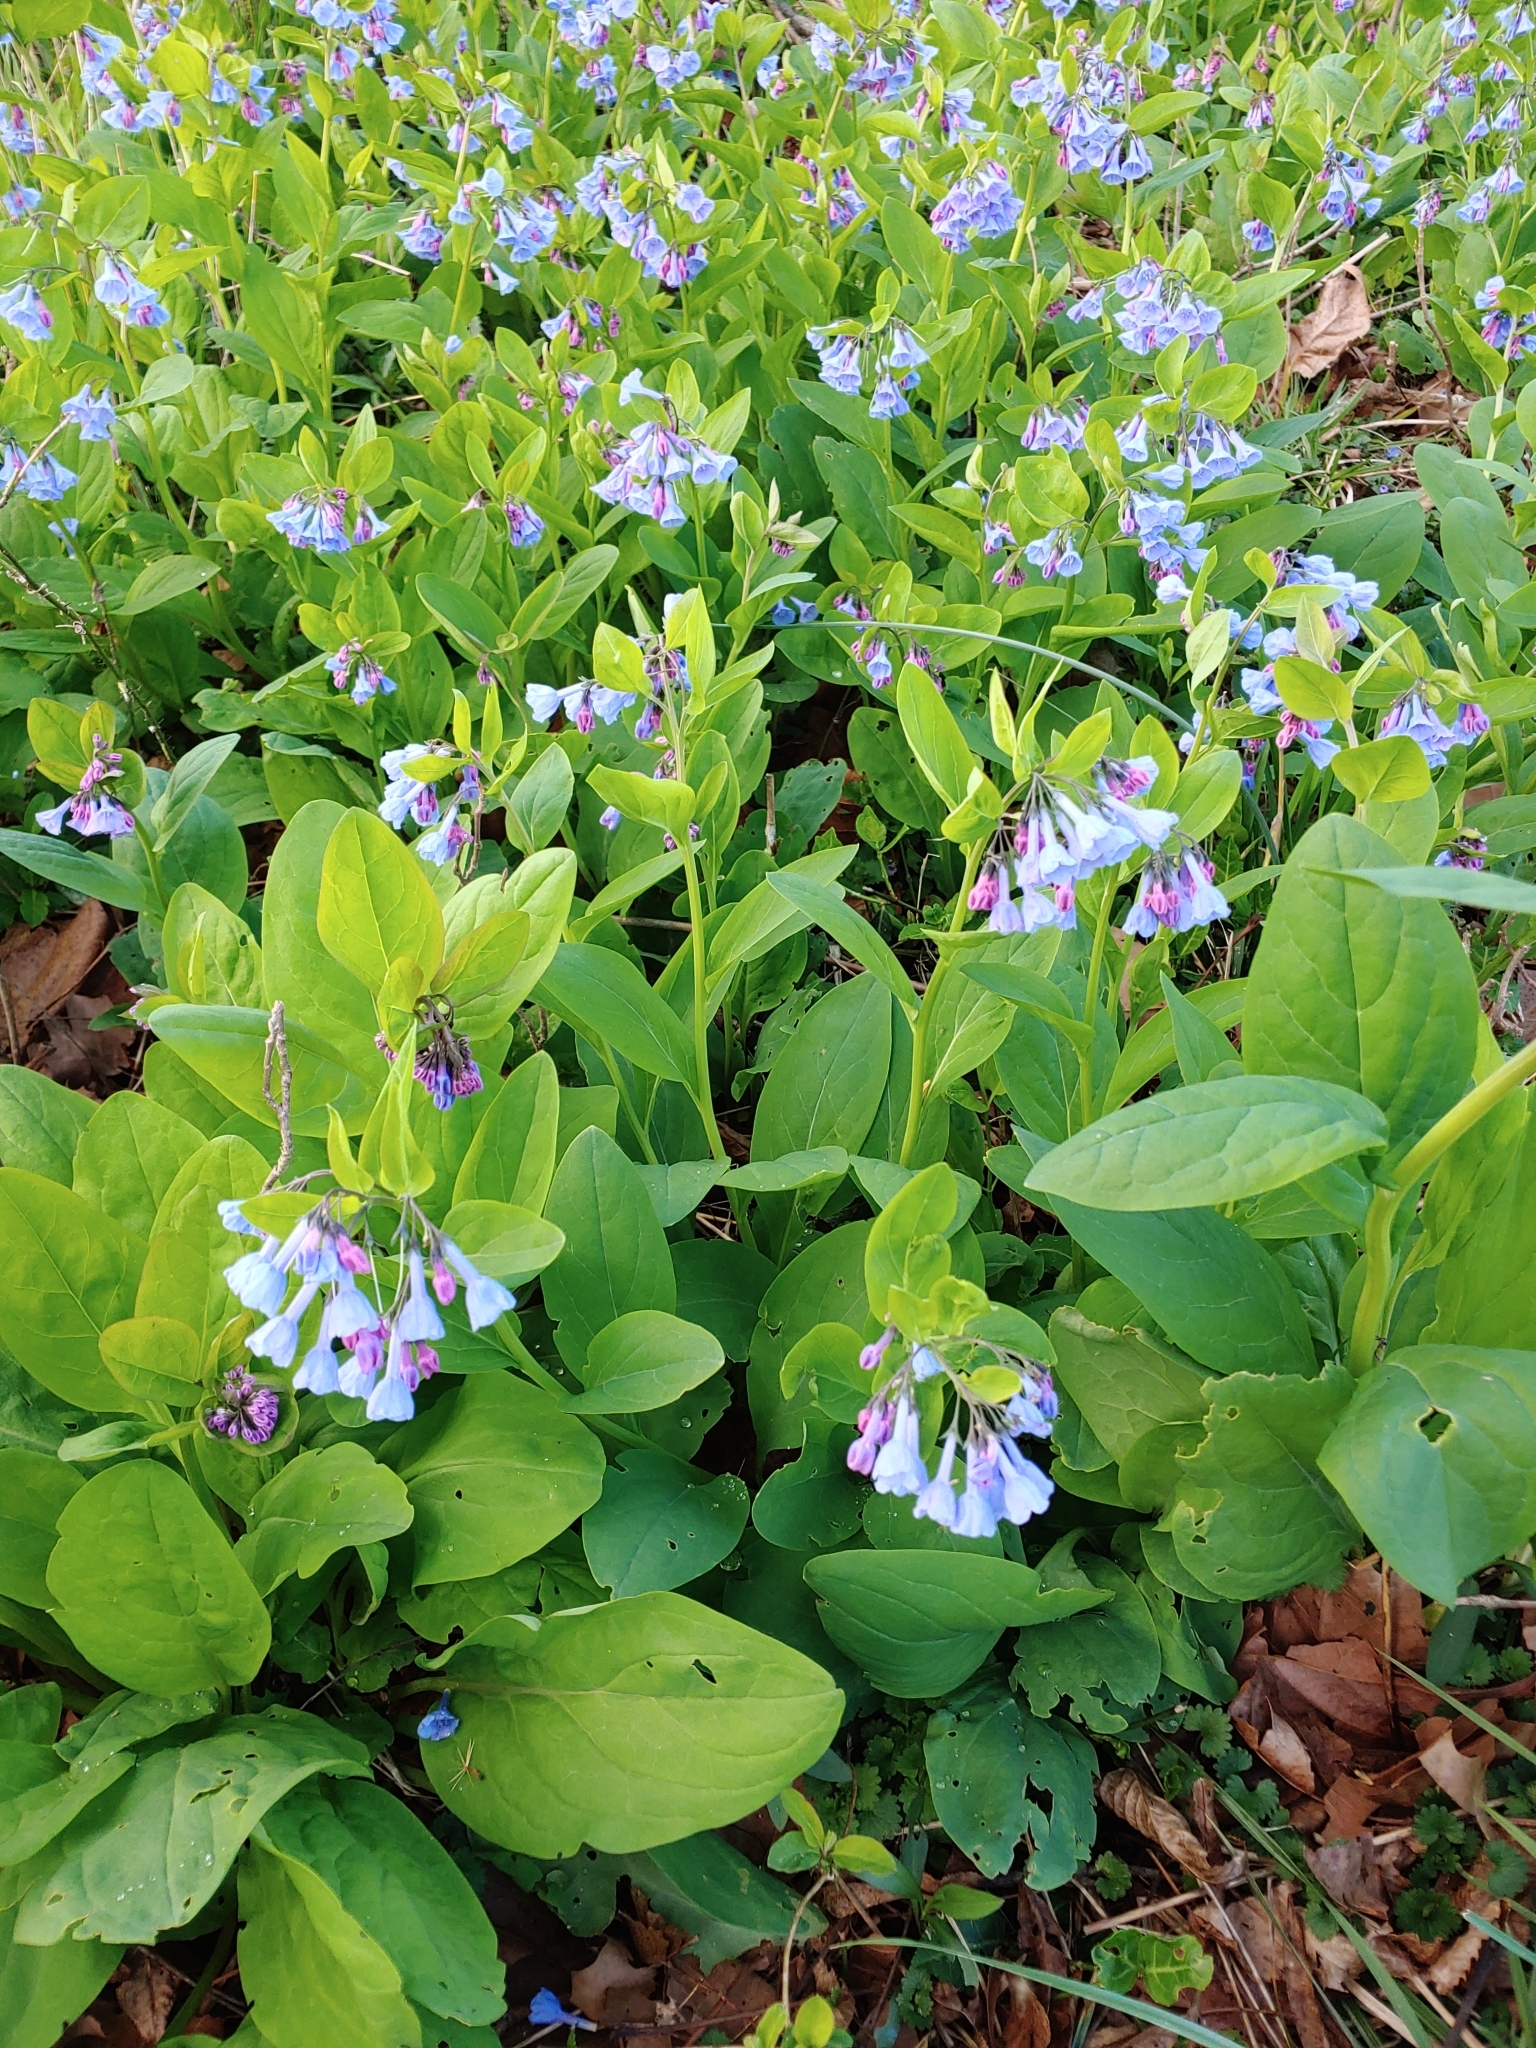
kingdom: Plantae
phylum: Tracheophyta
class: Magnoliopsida
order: Boraginales
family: Boraginaceae
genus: Mertensia
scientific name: Mertensia virginica
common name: Virginia bluebells
